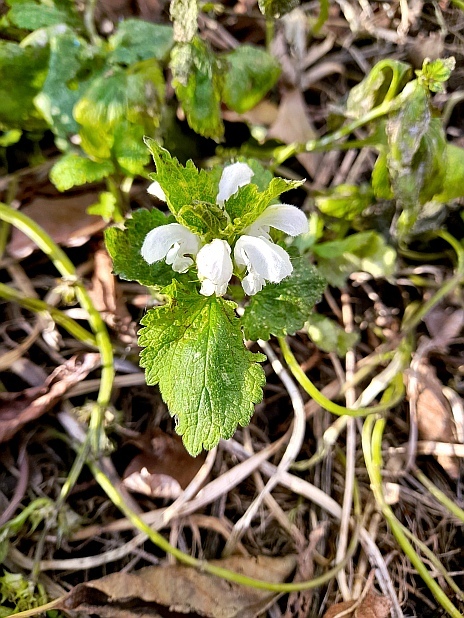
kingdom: Plantae
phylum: Tracheophyta
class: Magnoliopsida
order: Lamiales
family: Lamiaceae
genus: Lamium
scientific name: Lamium album
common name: White dead-nettle
